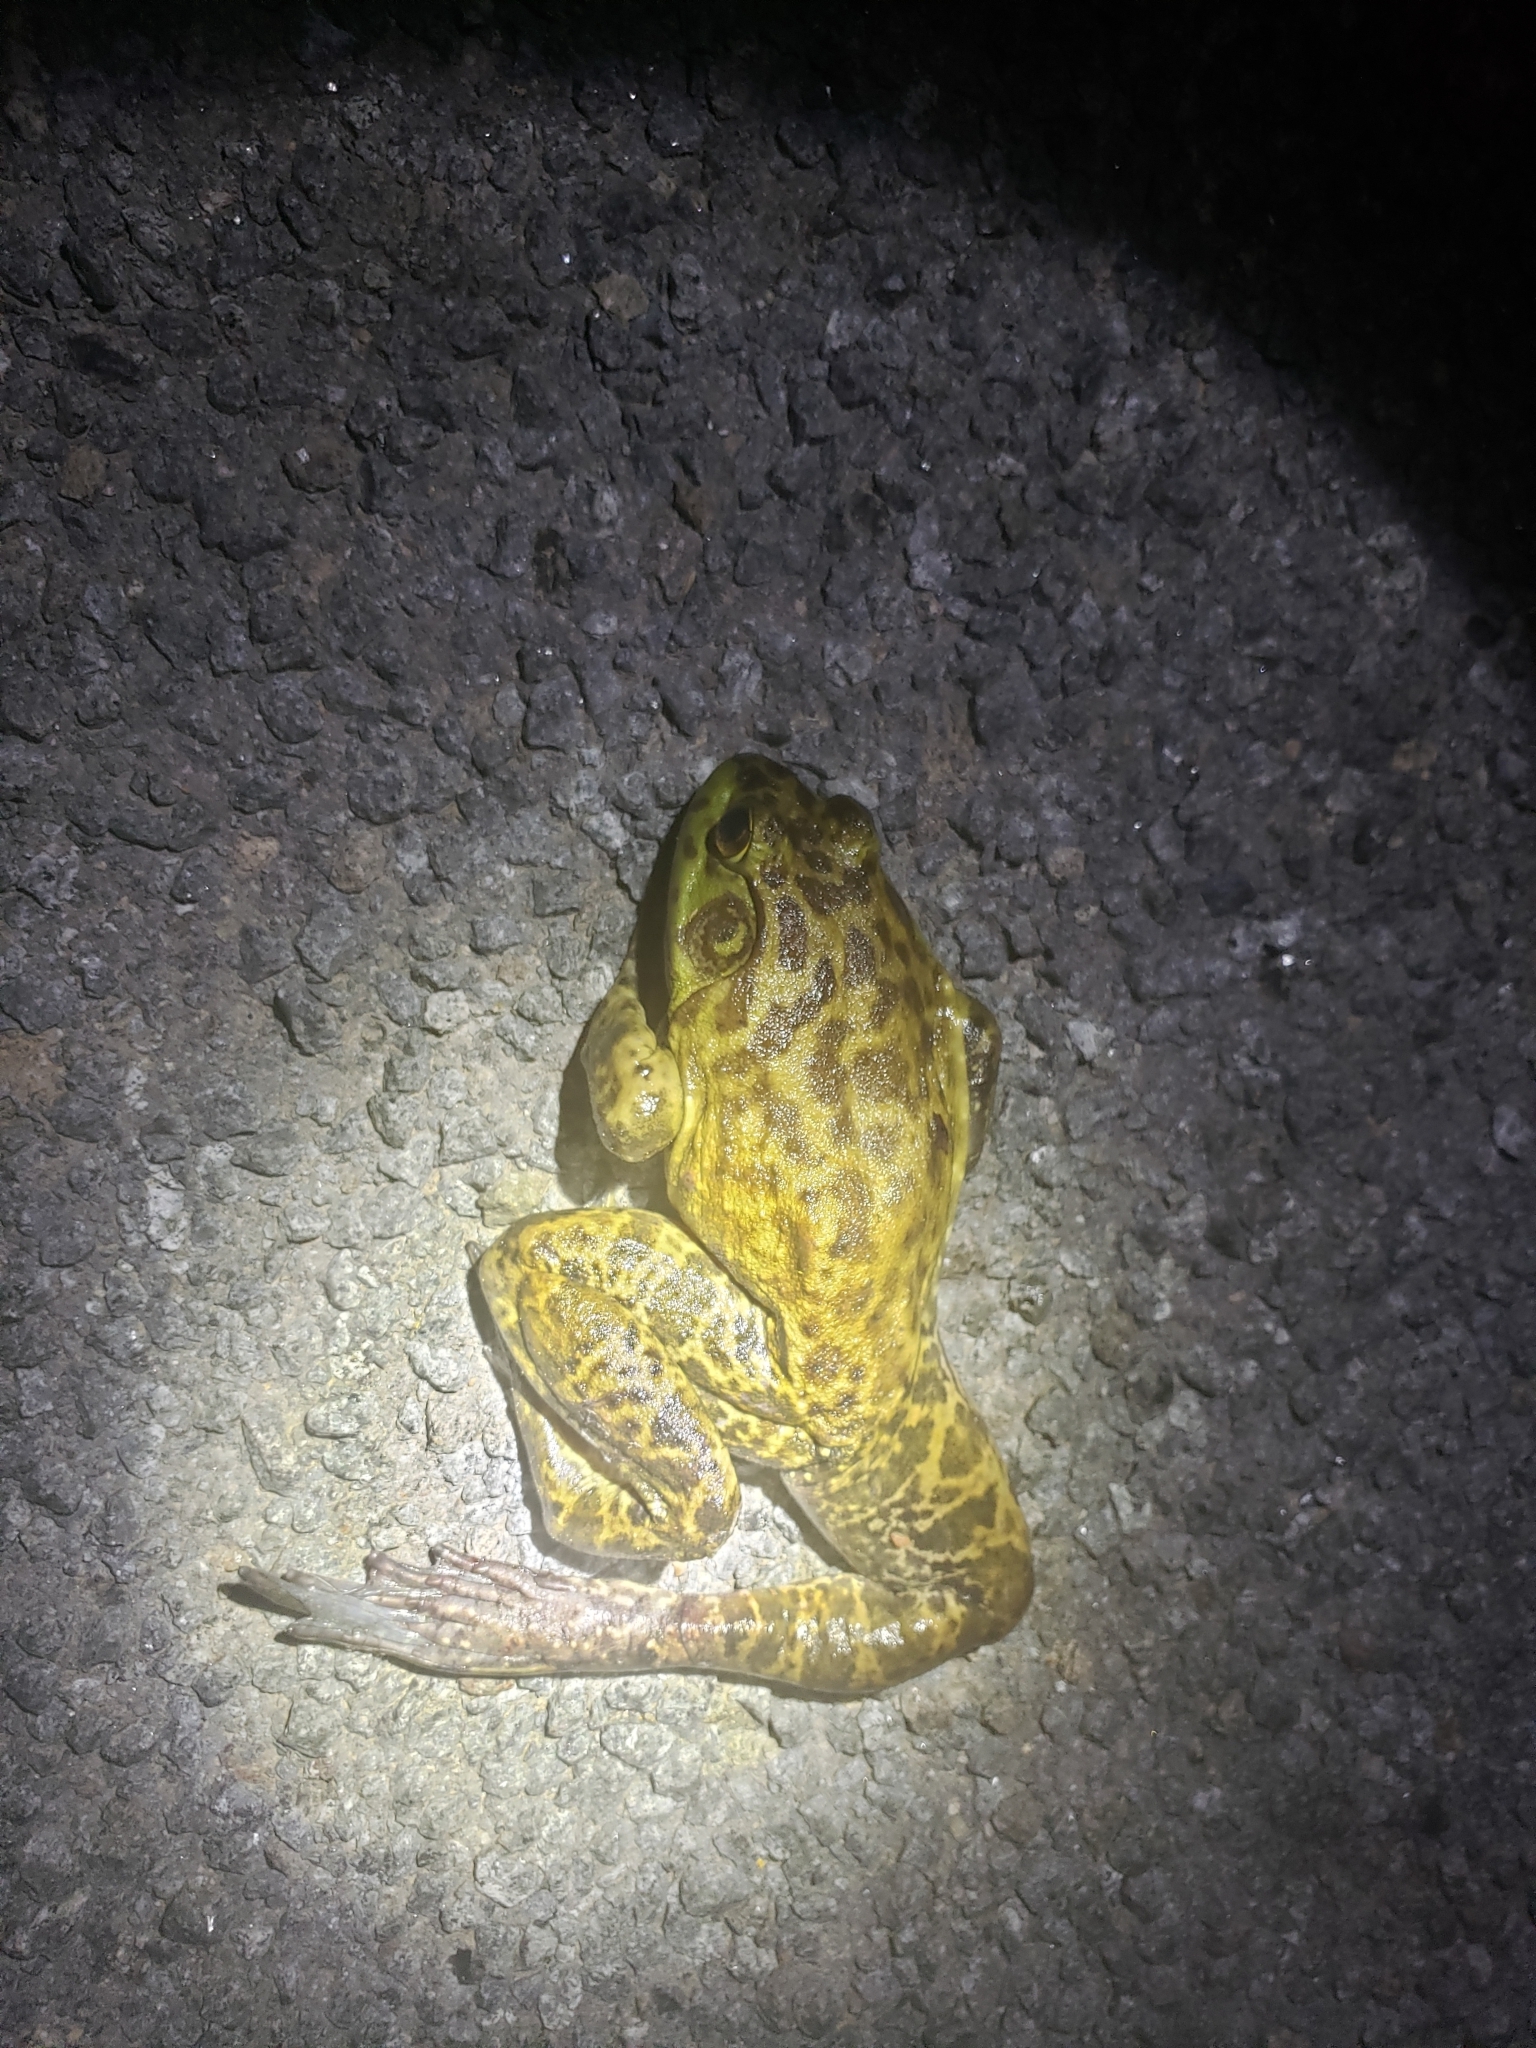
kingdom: Animalia
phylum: Chordata
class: Amphibia
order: Anura
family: Ranidae
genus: Lithobates
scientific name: Lithobates catesbeianus
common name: American bullfrog
